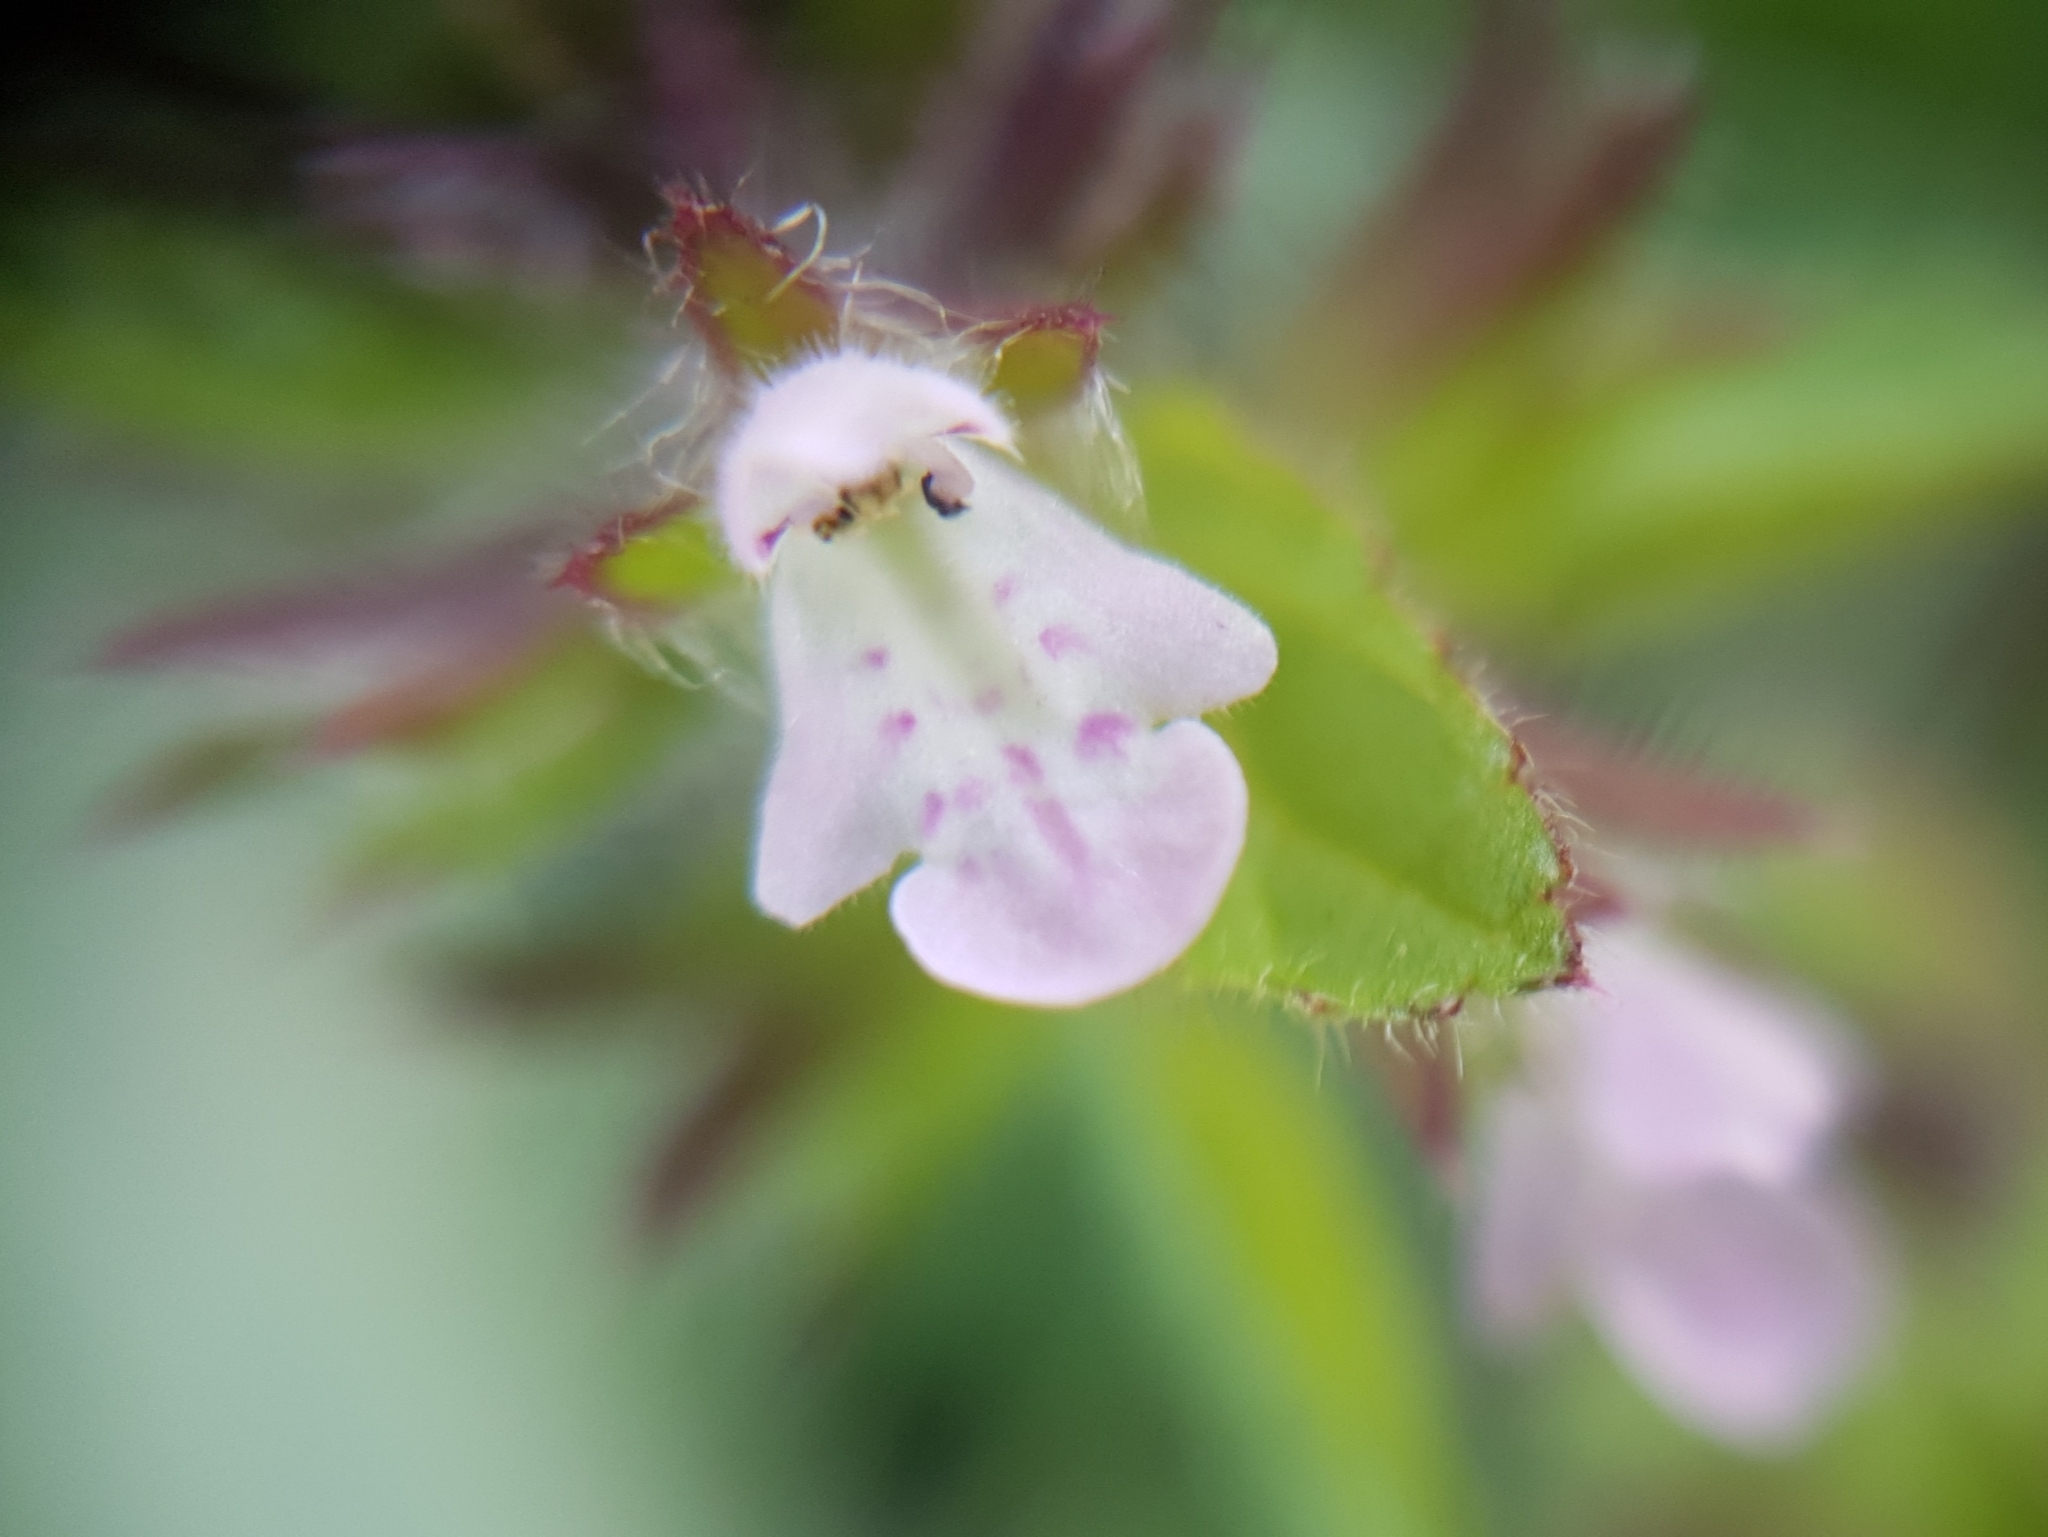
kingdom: Plantae
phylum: Tracheophyta
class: Magnoliopsida
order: Lamiales
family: Lamiaceae
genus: Stachys
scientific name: Stachys arvensis
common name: Field woundwort
